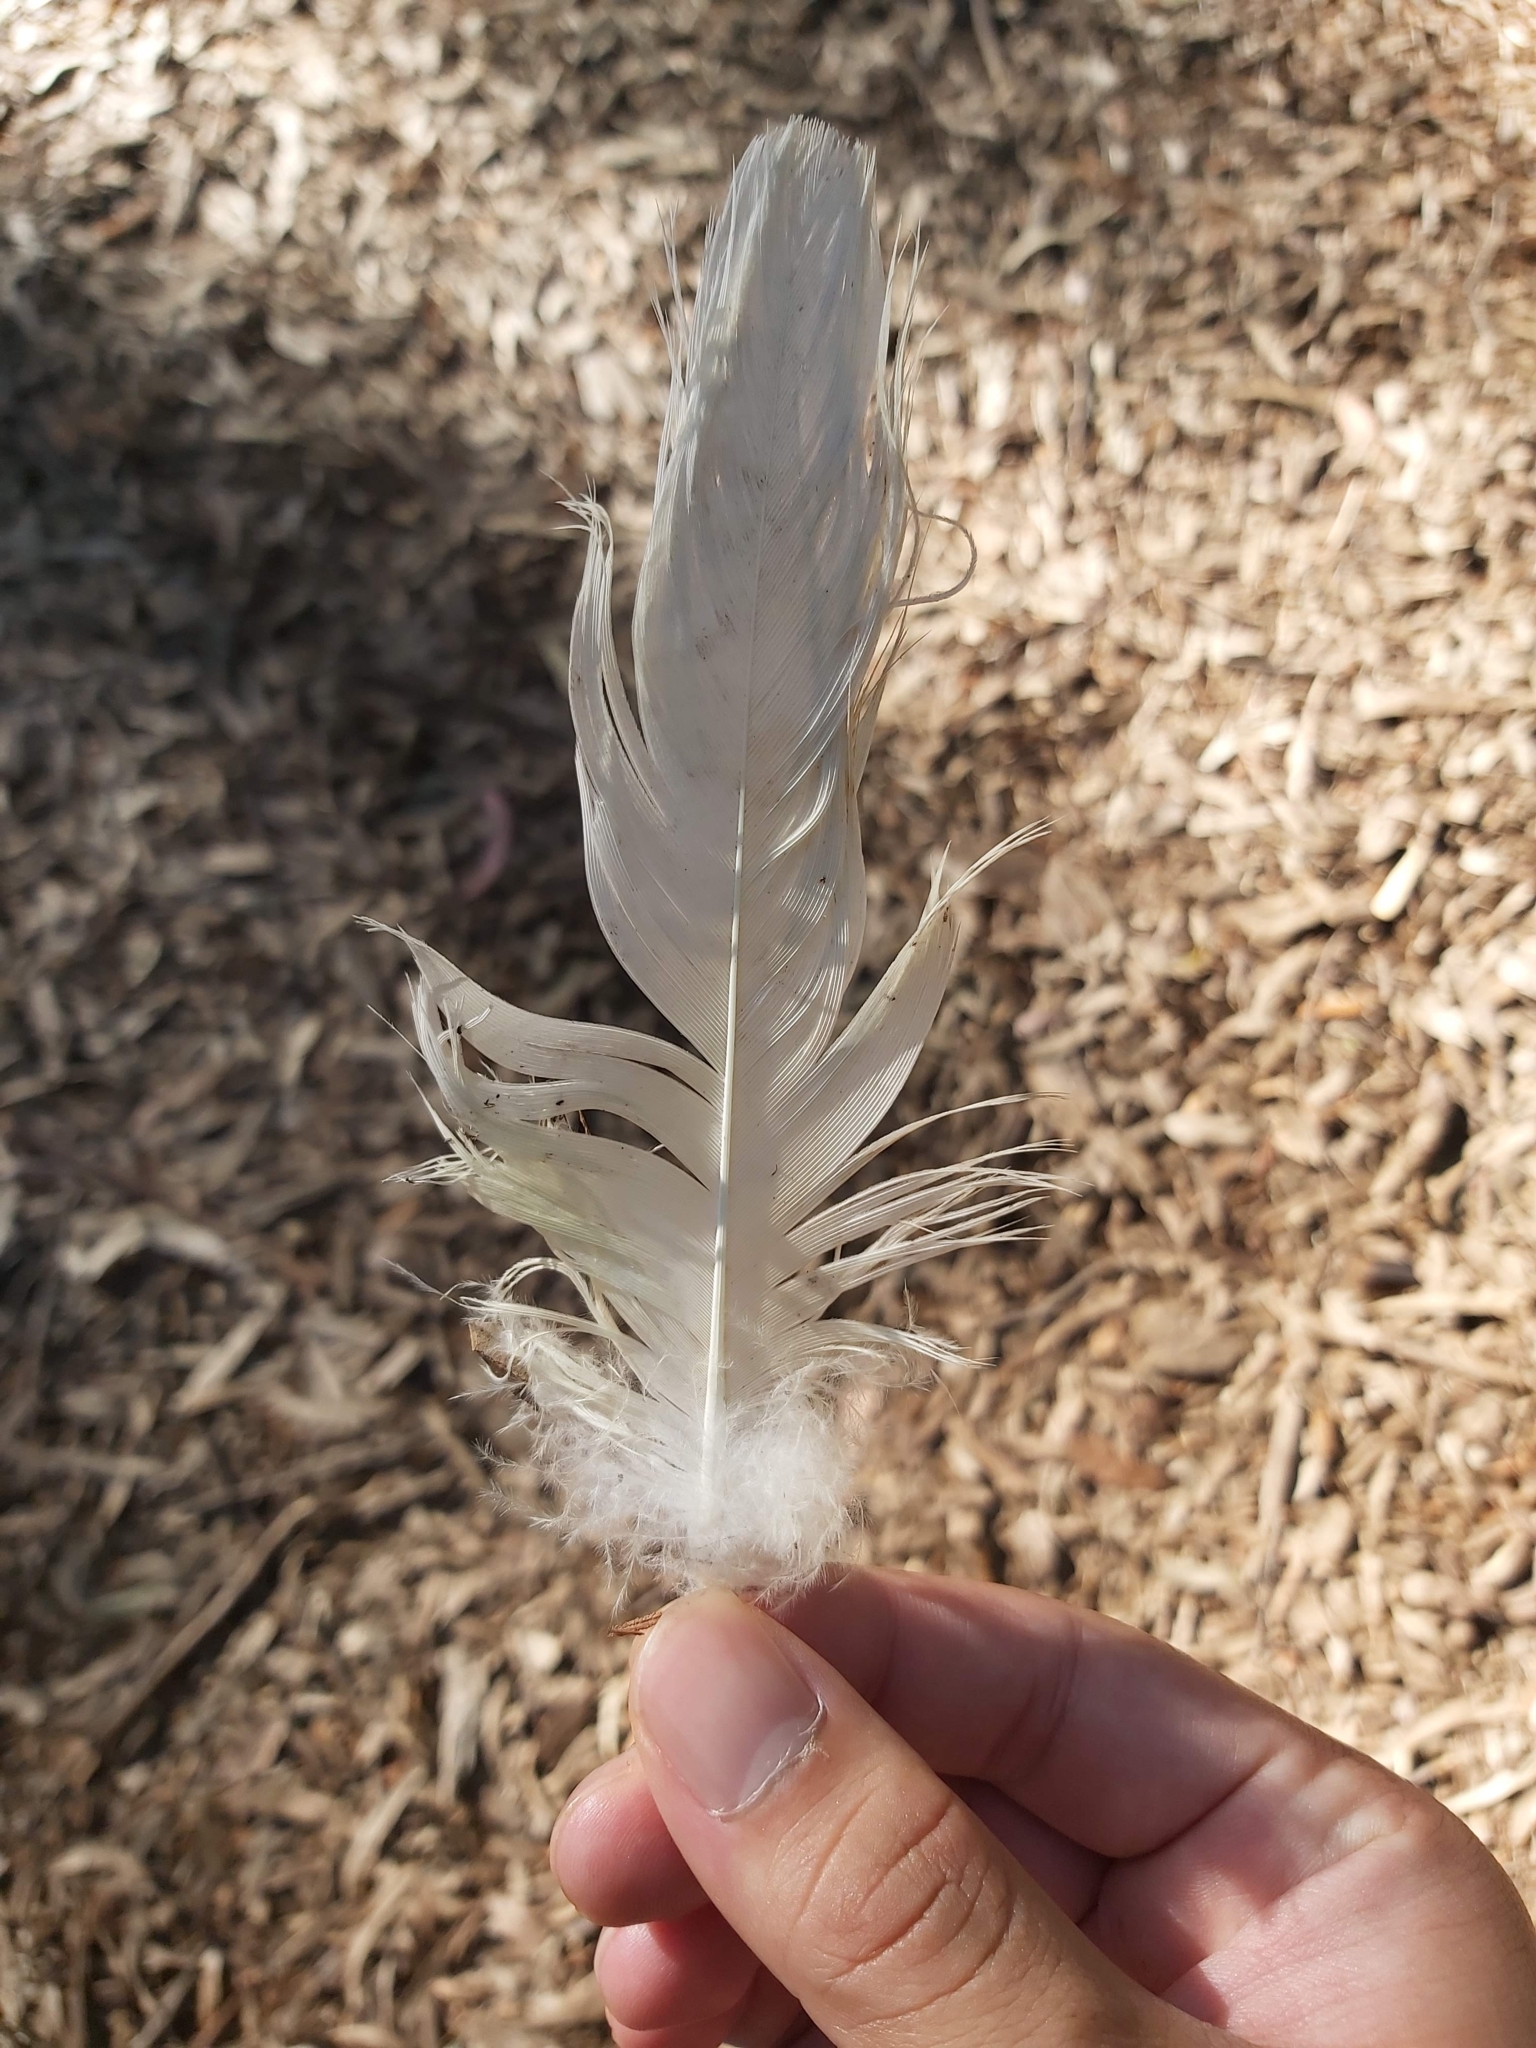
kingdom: Animalia
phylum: Chordata
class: Aves
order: Psittaciformes
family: Psittacidae
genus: Cacatua
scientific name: Cacatua galerita
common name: Sulphur-crested cockatoo
